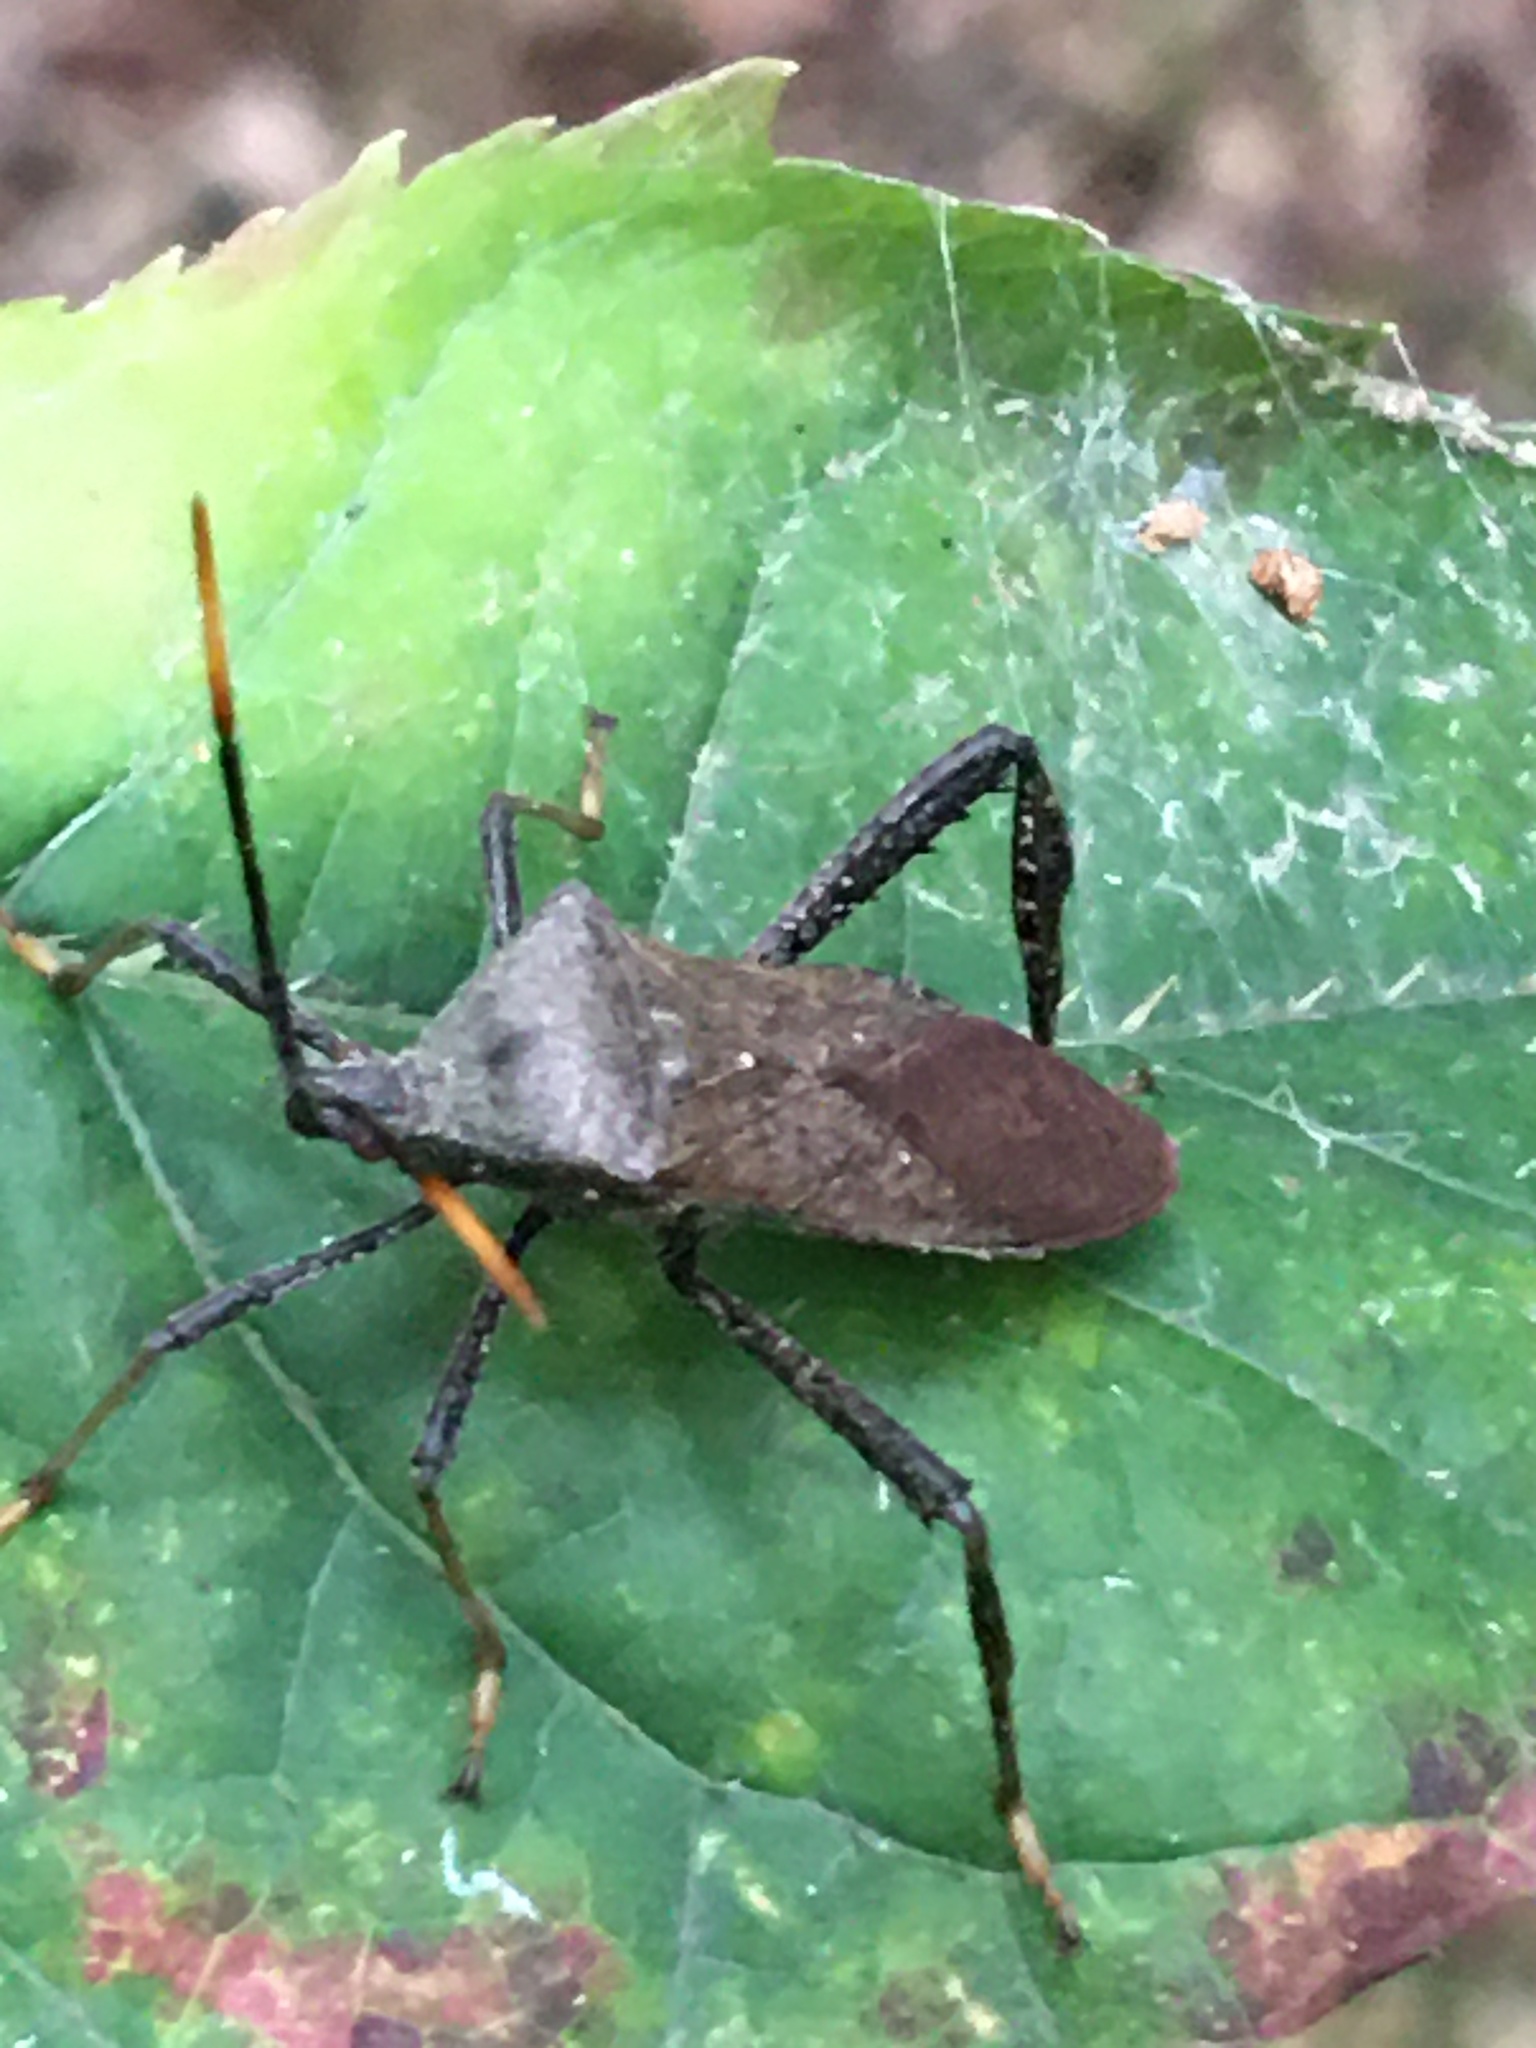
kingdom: Animalia
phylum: Arthropoda
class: Insecta
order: Hemiptera
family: Coreidae
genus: Acanthocephala
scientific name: Acanthocephala terminalis
